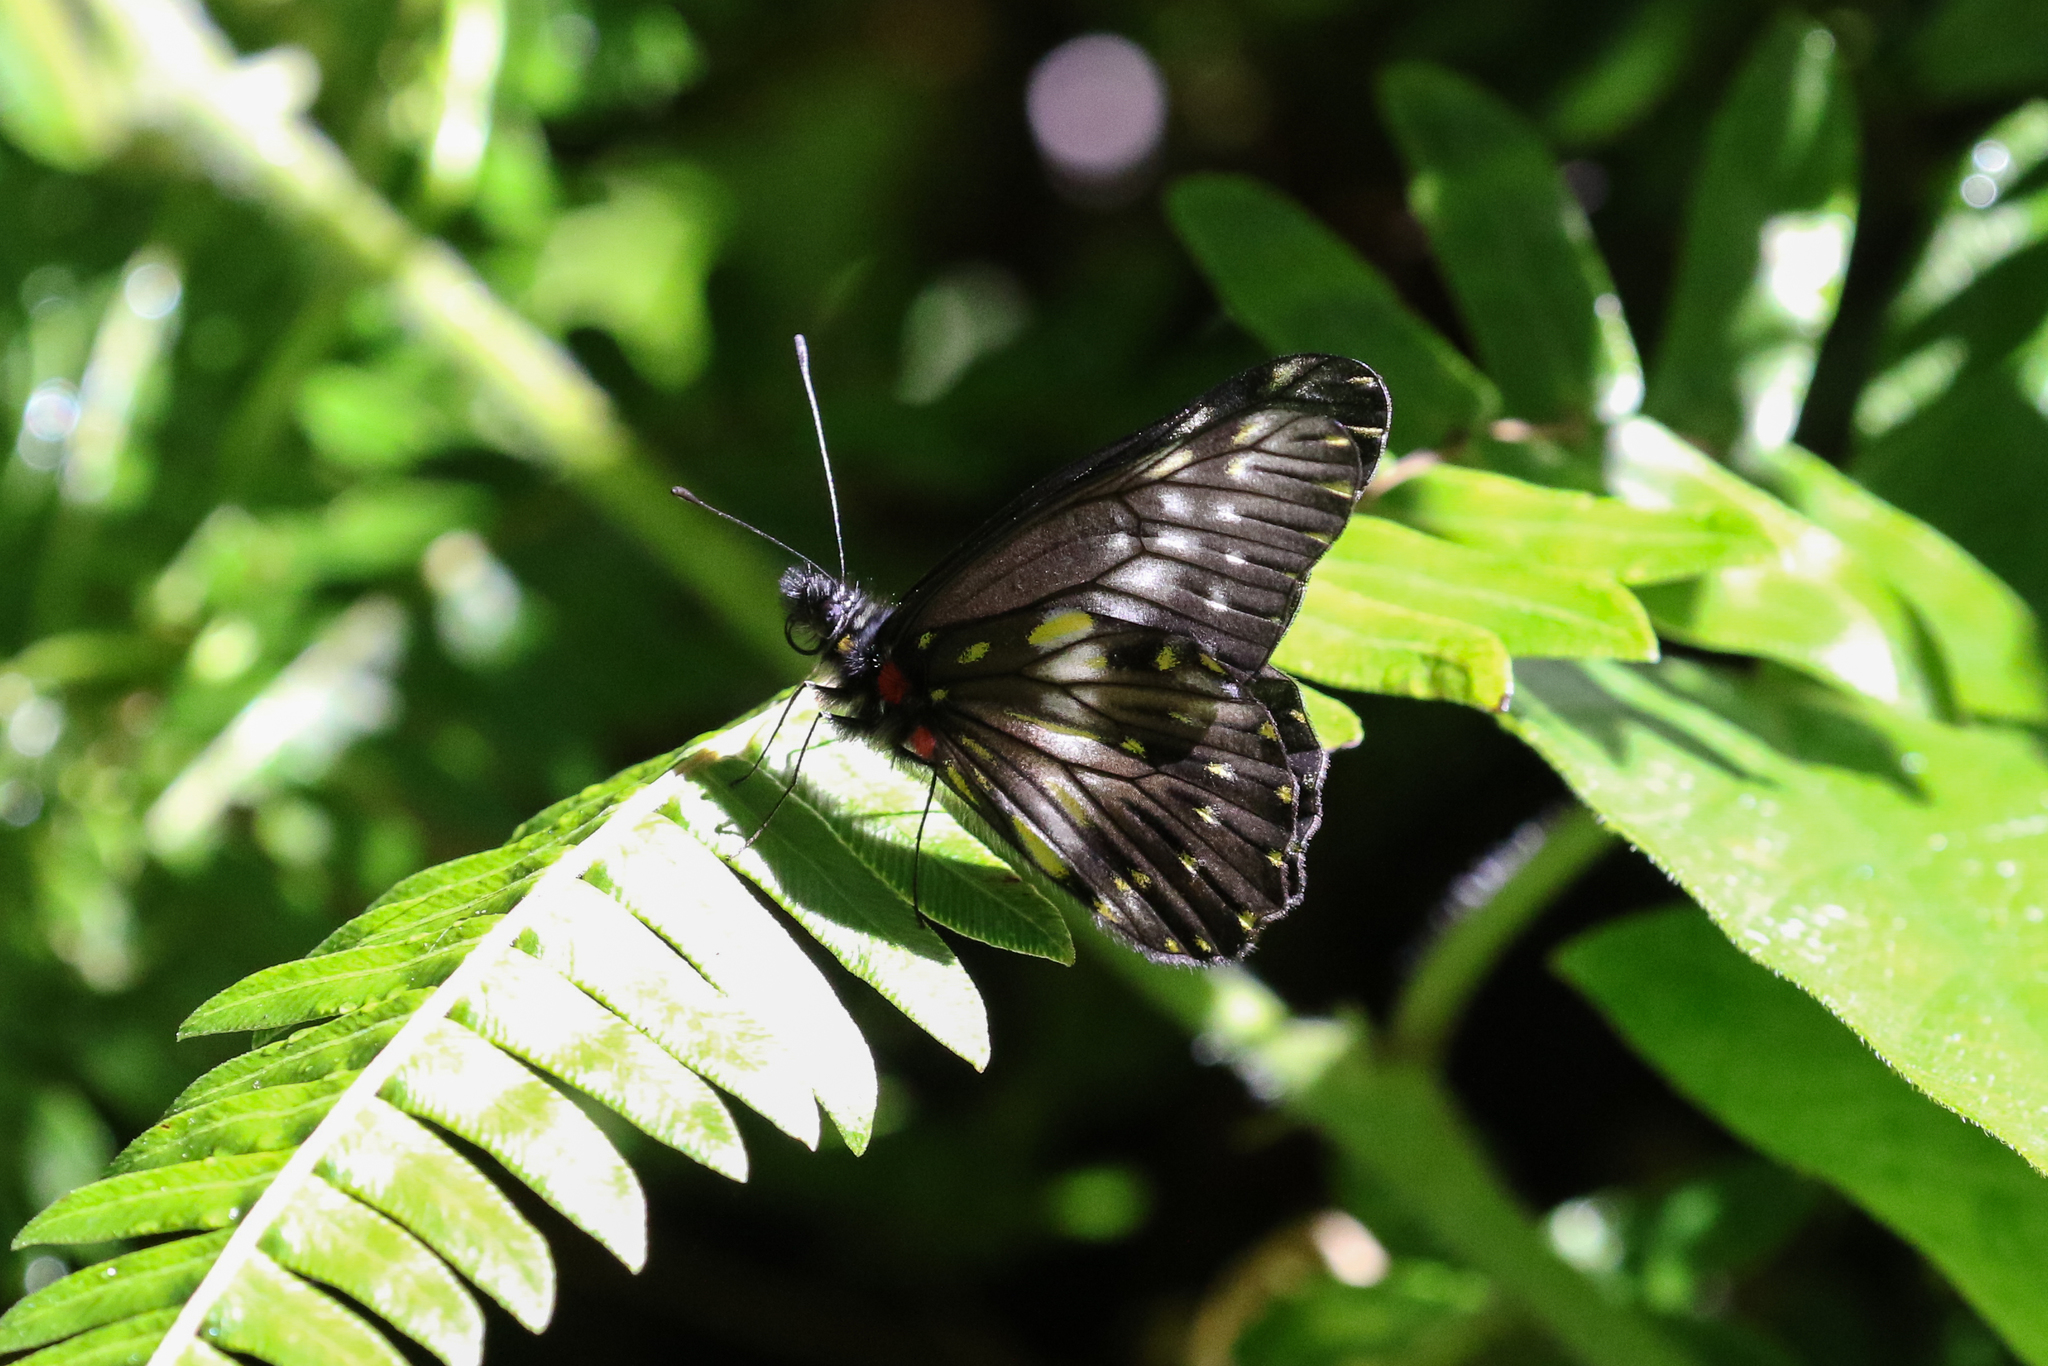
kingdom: Animalia
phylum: Arthropoda
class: Insecta
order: Lepidoptera
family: Pieridae
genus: Archonias
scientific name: Archonias flisa
